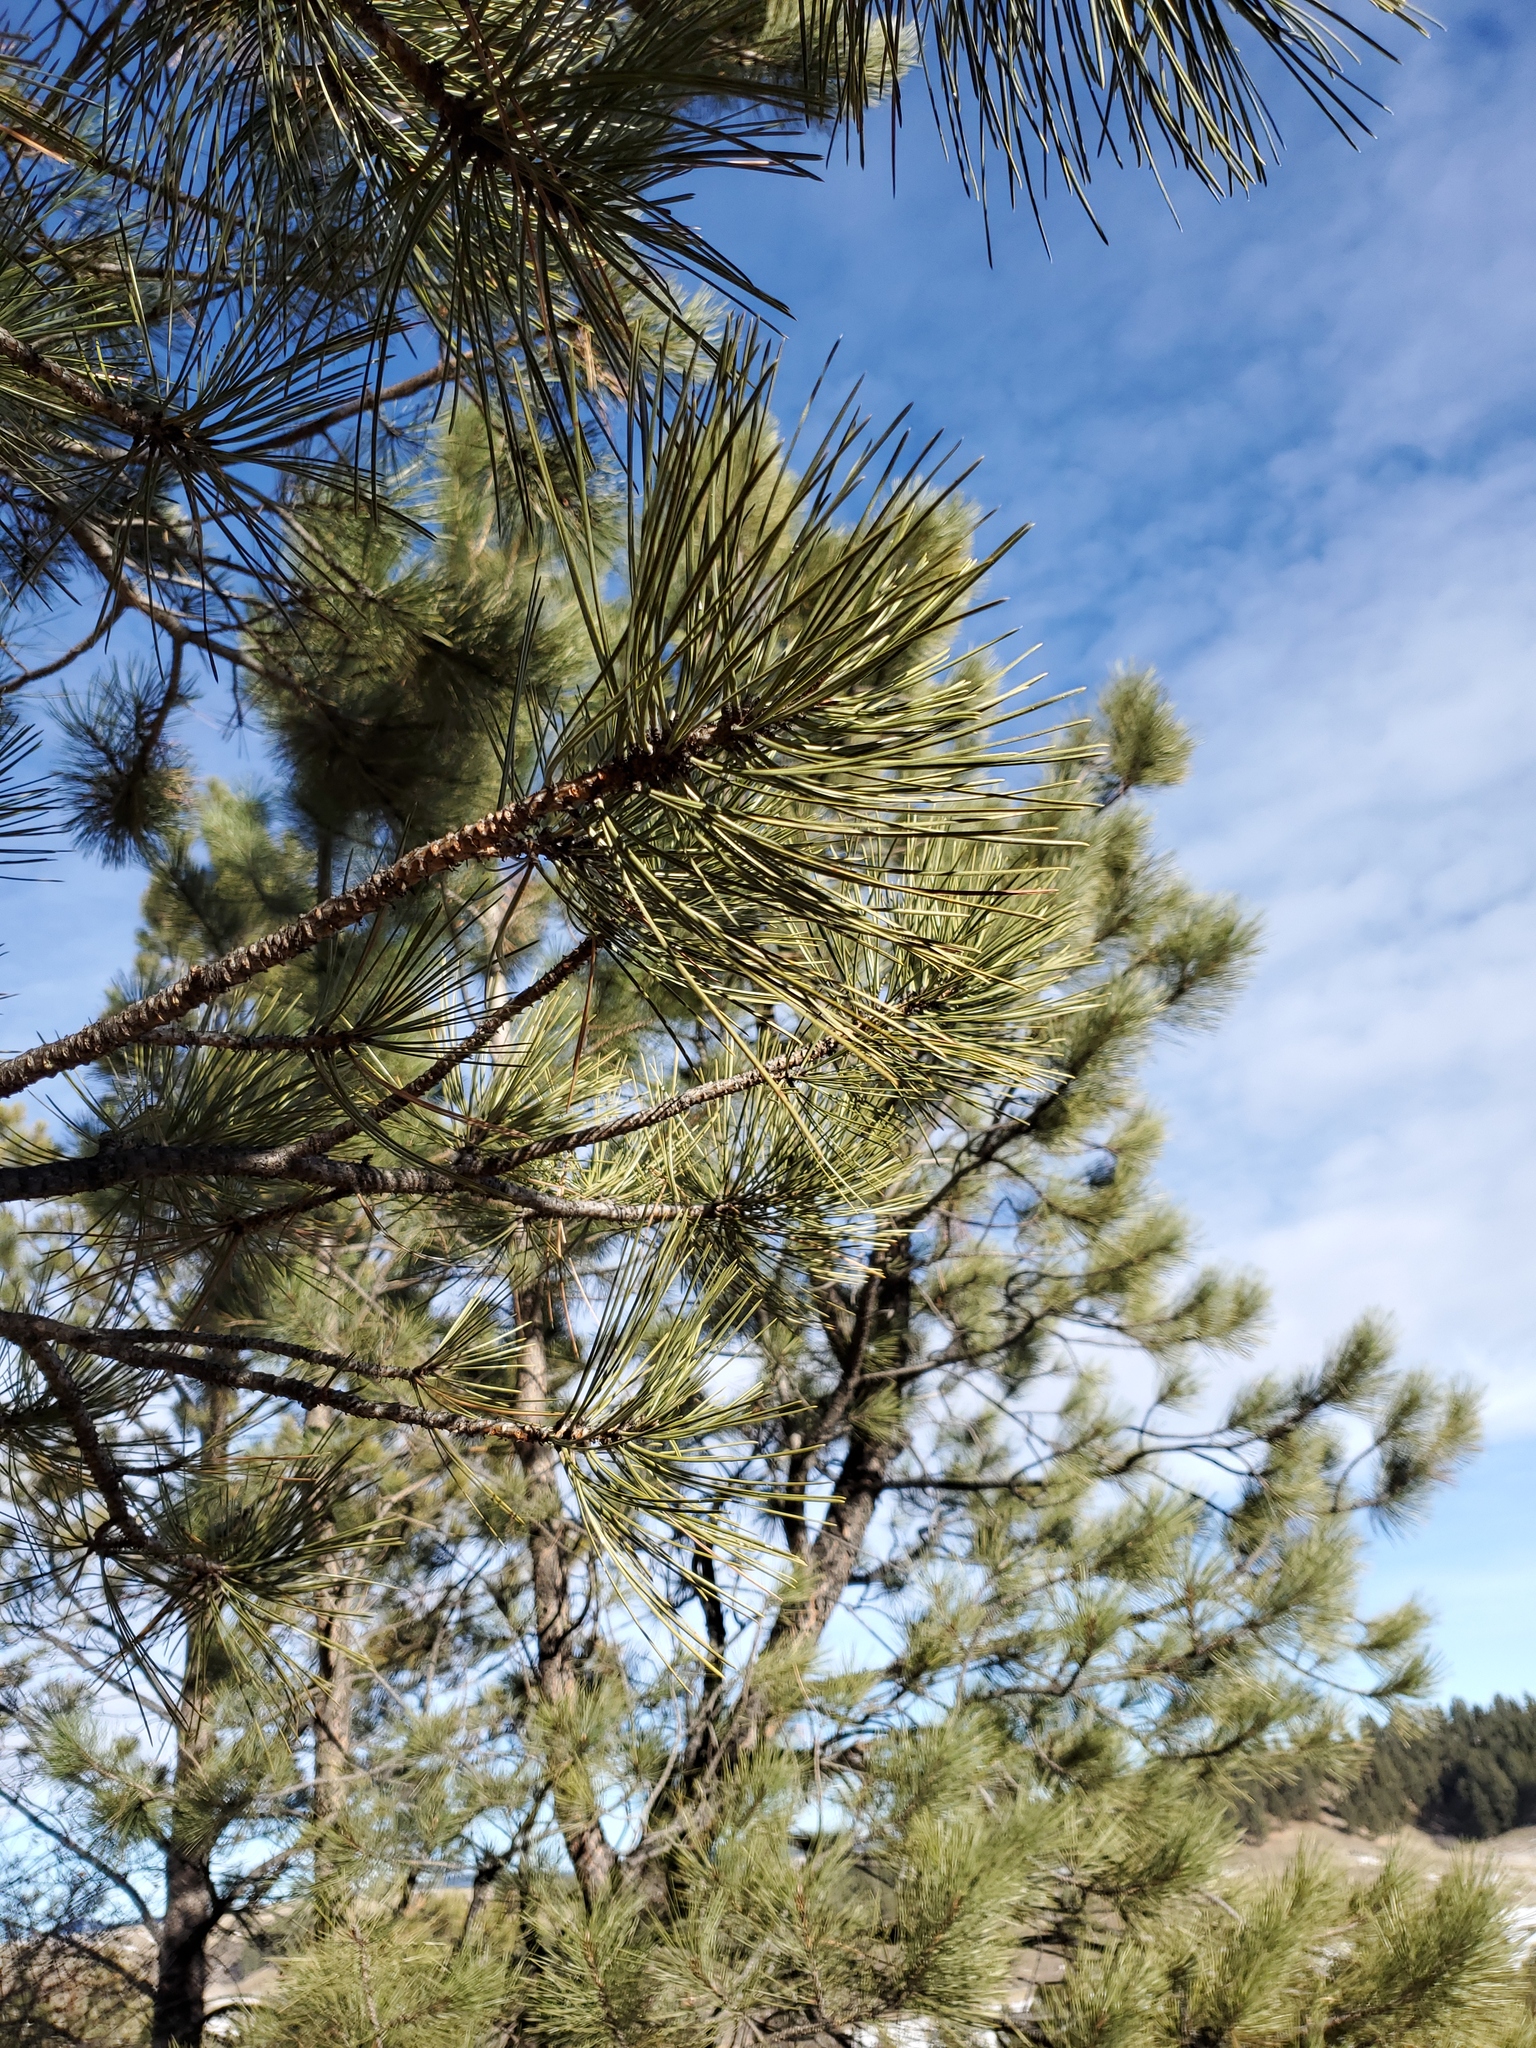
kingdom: Plantae
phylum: Tracheophyta
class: Pinopsida
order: Pinales
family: Pinaceae
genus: Pinus
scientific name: Pinus ponderosa
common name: Western yellow-pine
